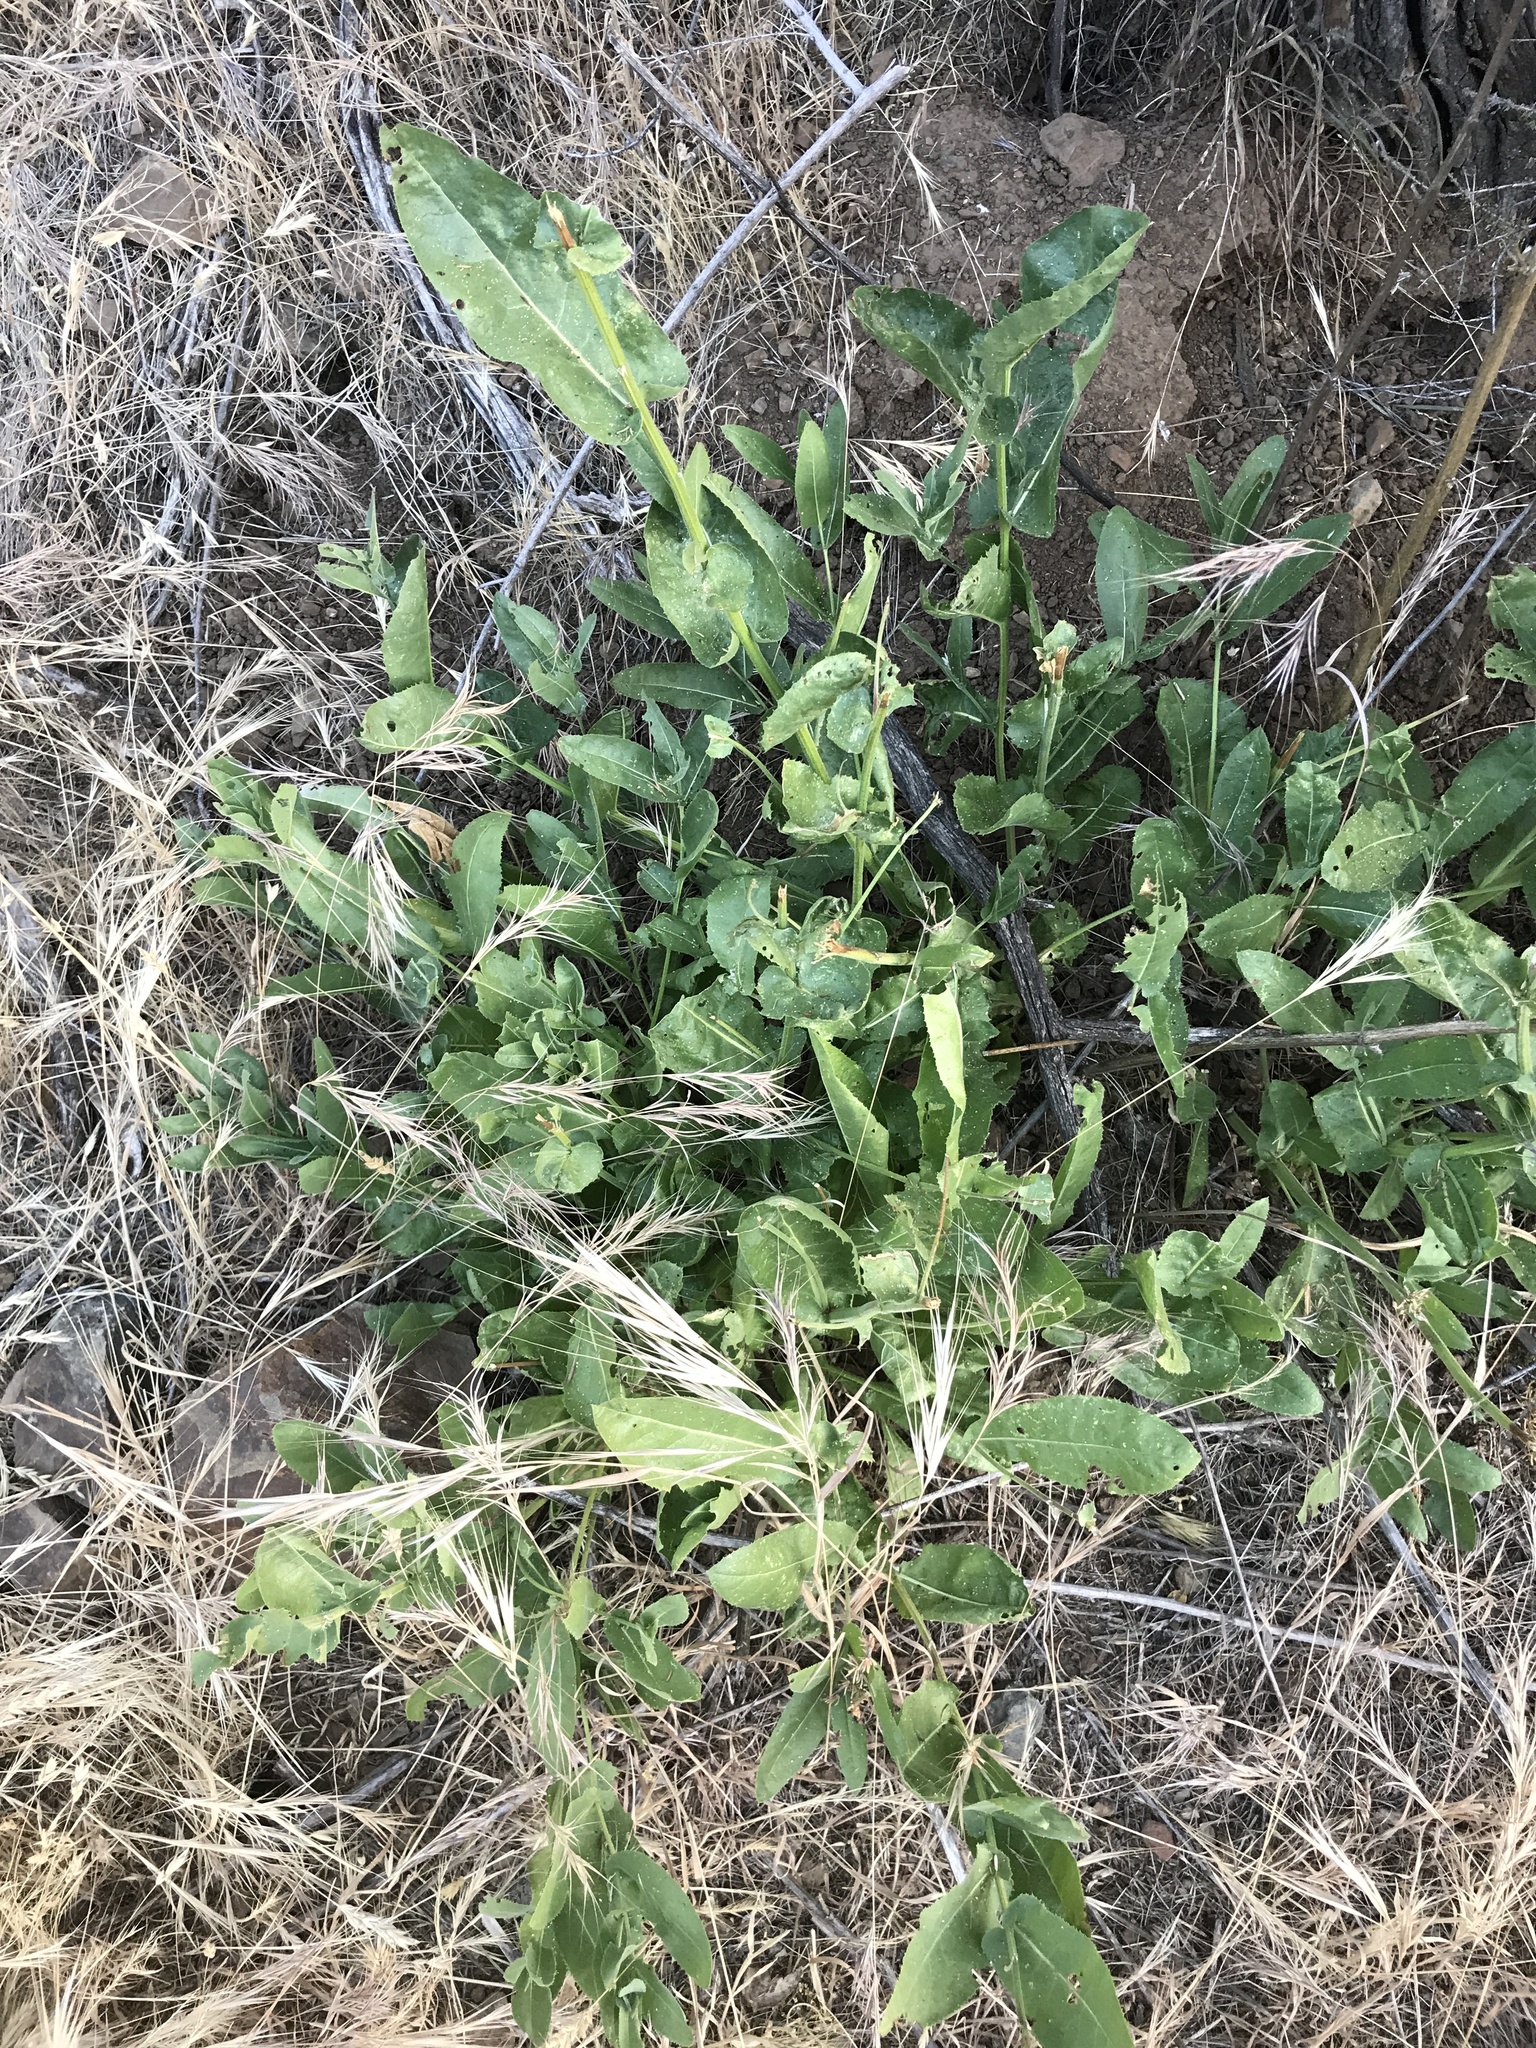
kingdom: Plantae
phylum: Tracheophyta
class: Magnoliopsida
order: Asterales
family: Asteraceae
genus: Acourtia
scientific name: Acourtia microcephala
